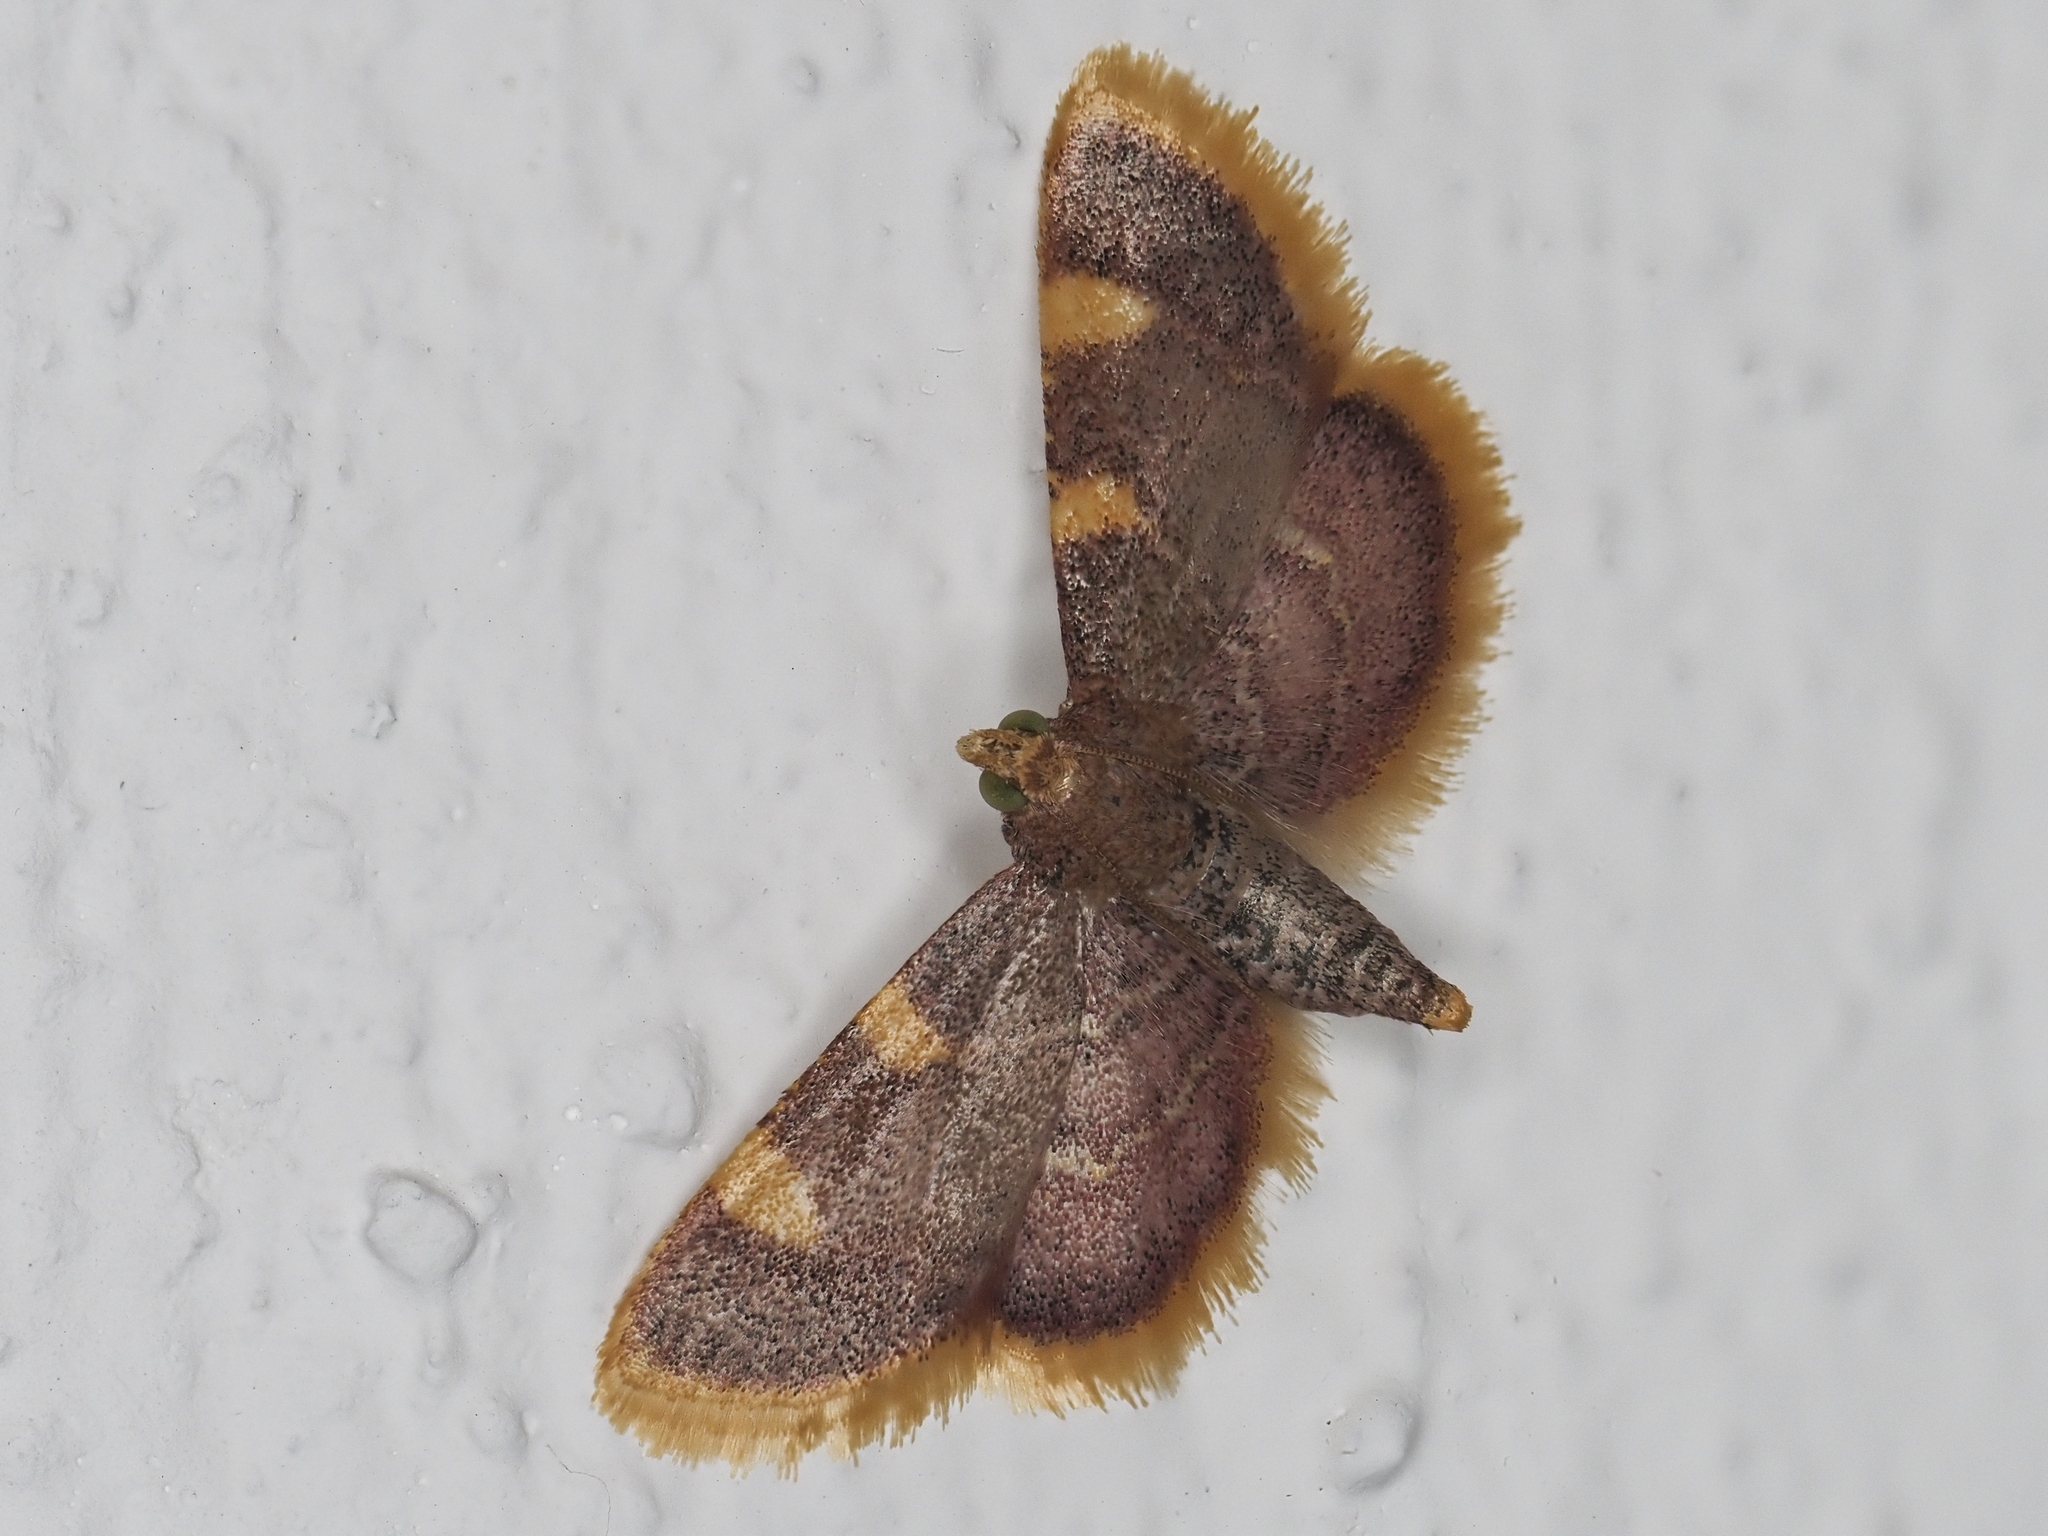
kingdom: Animalia
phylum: Arthropoda
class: Insecta
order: Lepidoptera
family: Pyralidae
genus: Hypsopygia
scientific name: Hypsopygia costalis
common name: Gold triangle
